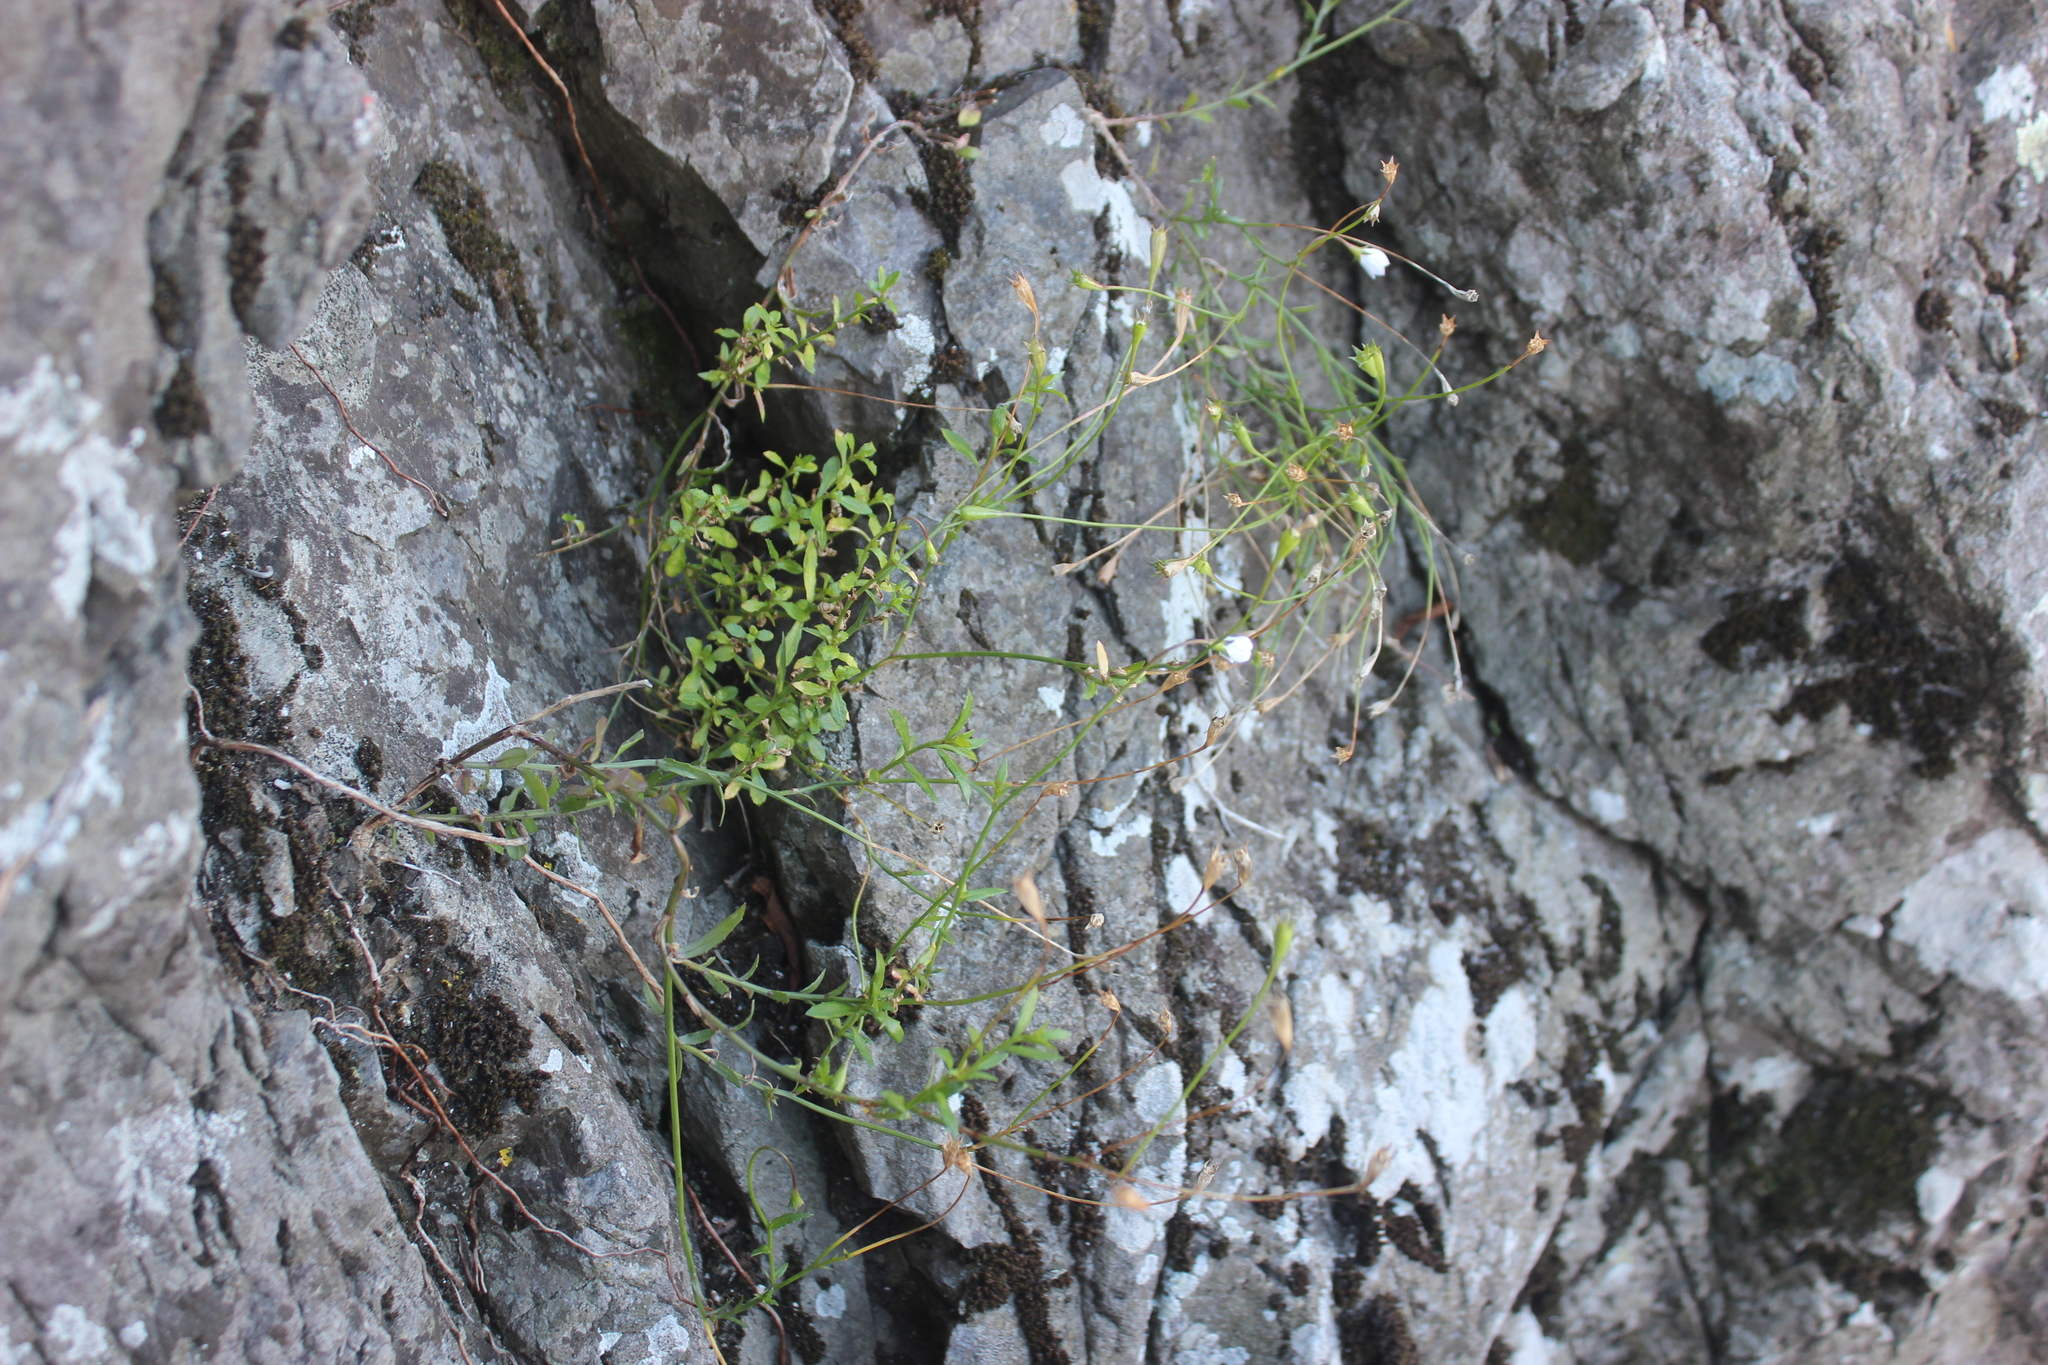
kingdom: Plantae
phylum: Tracheophyta
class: Magnoliopsida
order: Asterales
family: Campanulaceae
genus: Wahlenbergia
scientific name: Wahlenbergia ramosa
